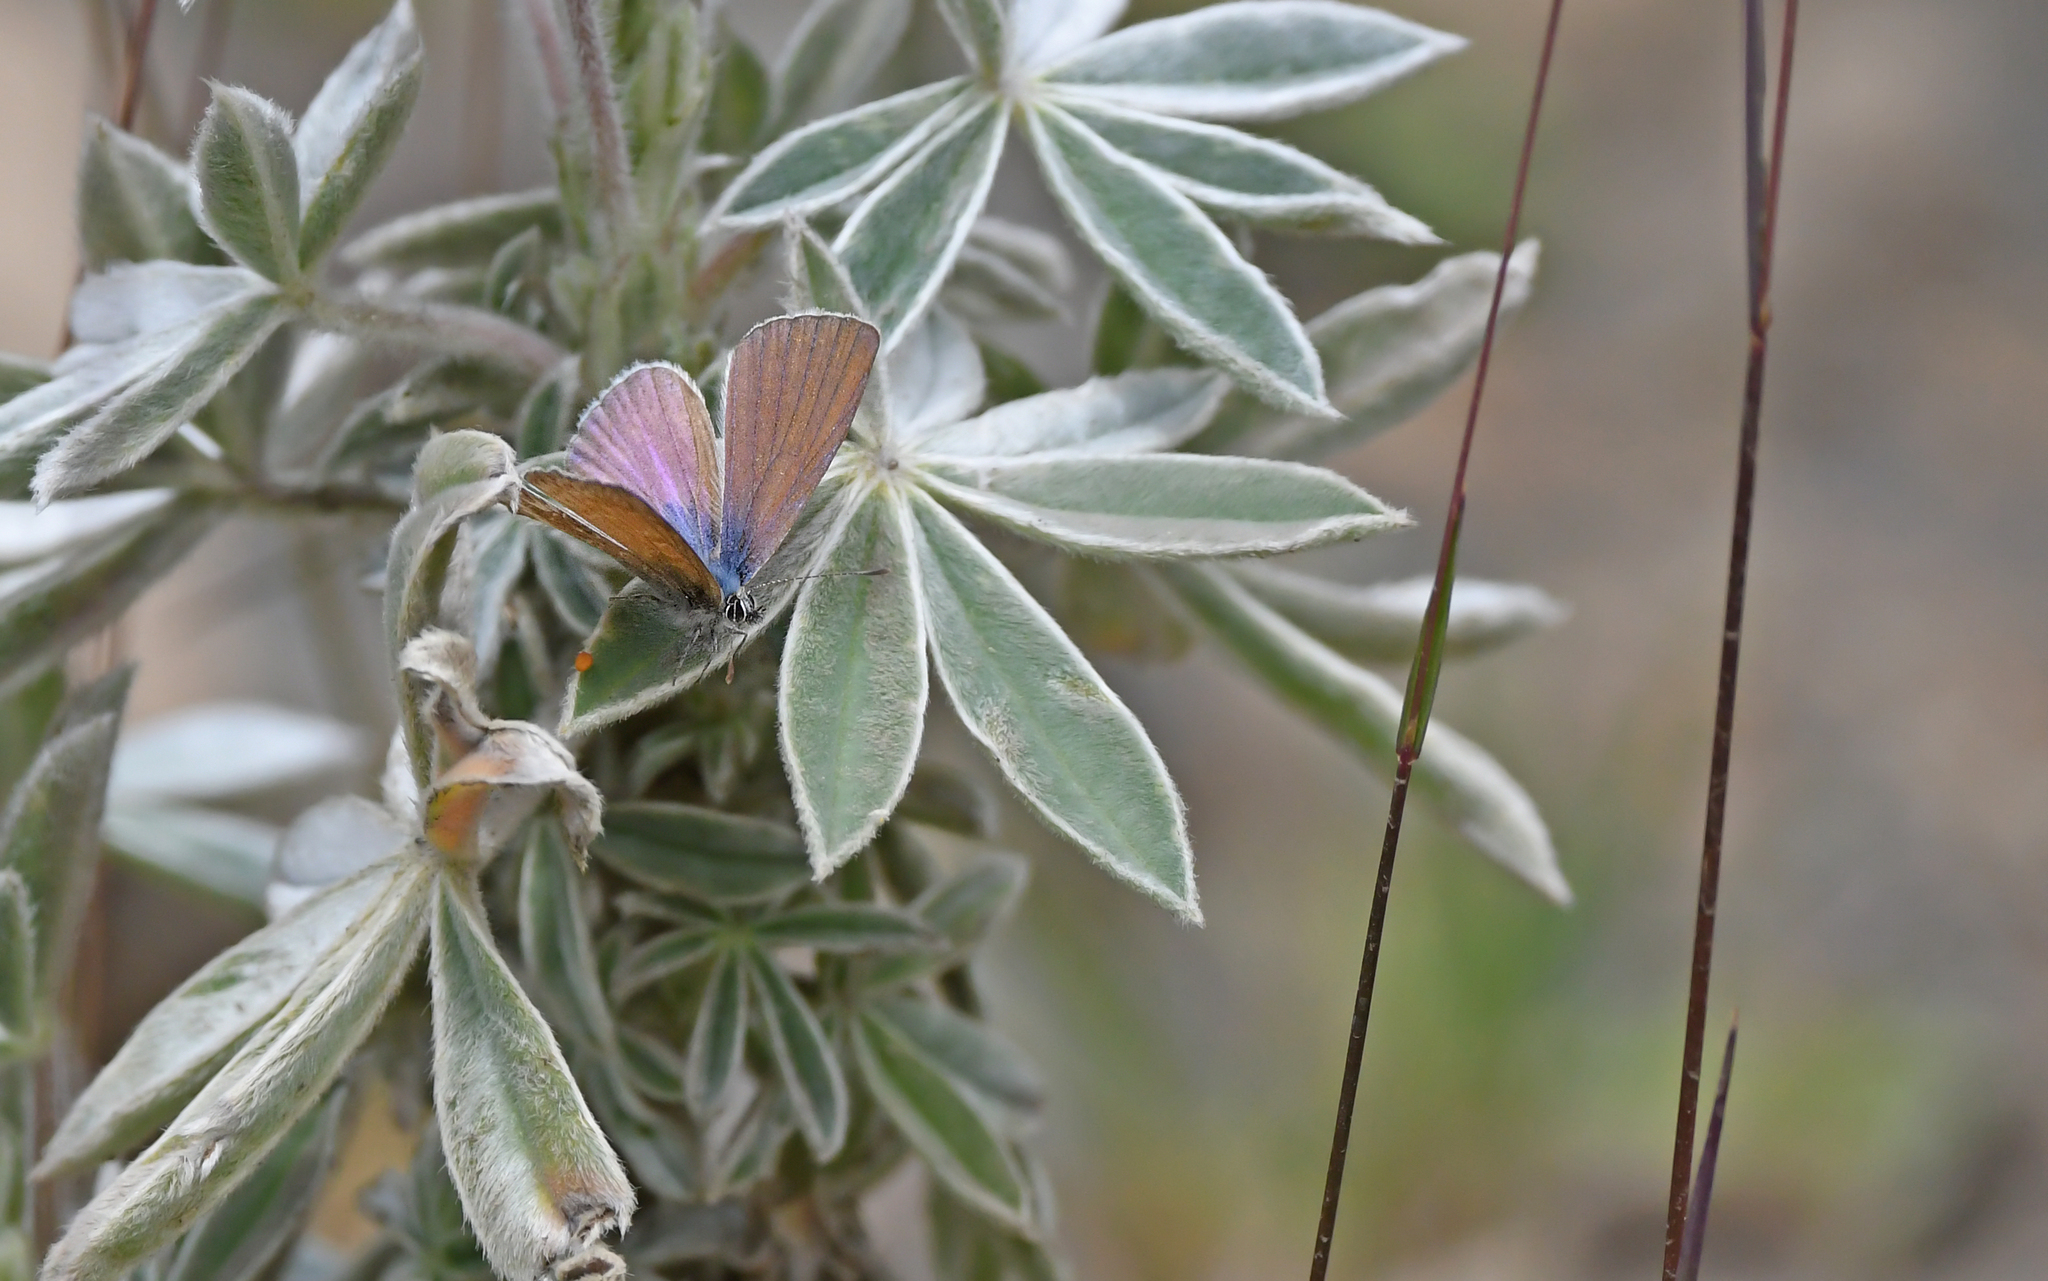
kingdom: Animalia
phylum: Arthropoda
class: Insecta
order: Lepidoptera
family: Lycaenidae
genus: Leptotes
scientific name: Leptotes callanga
